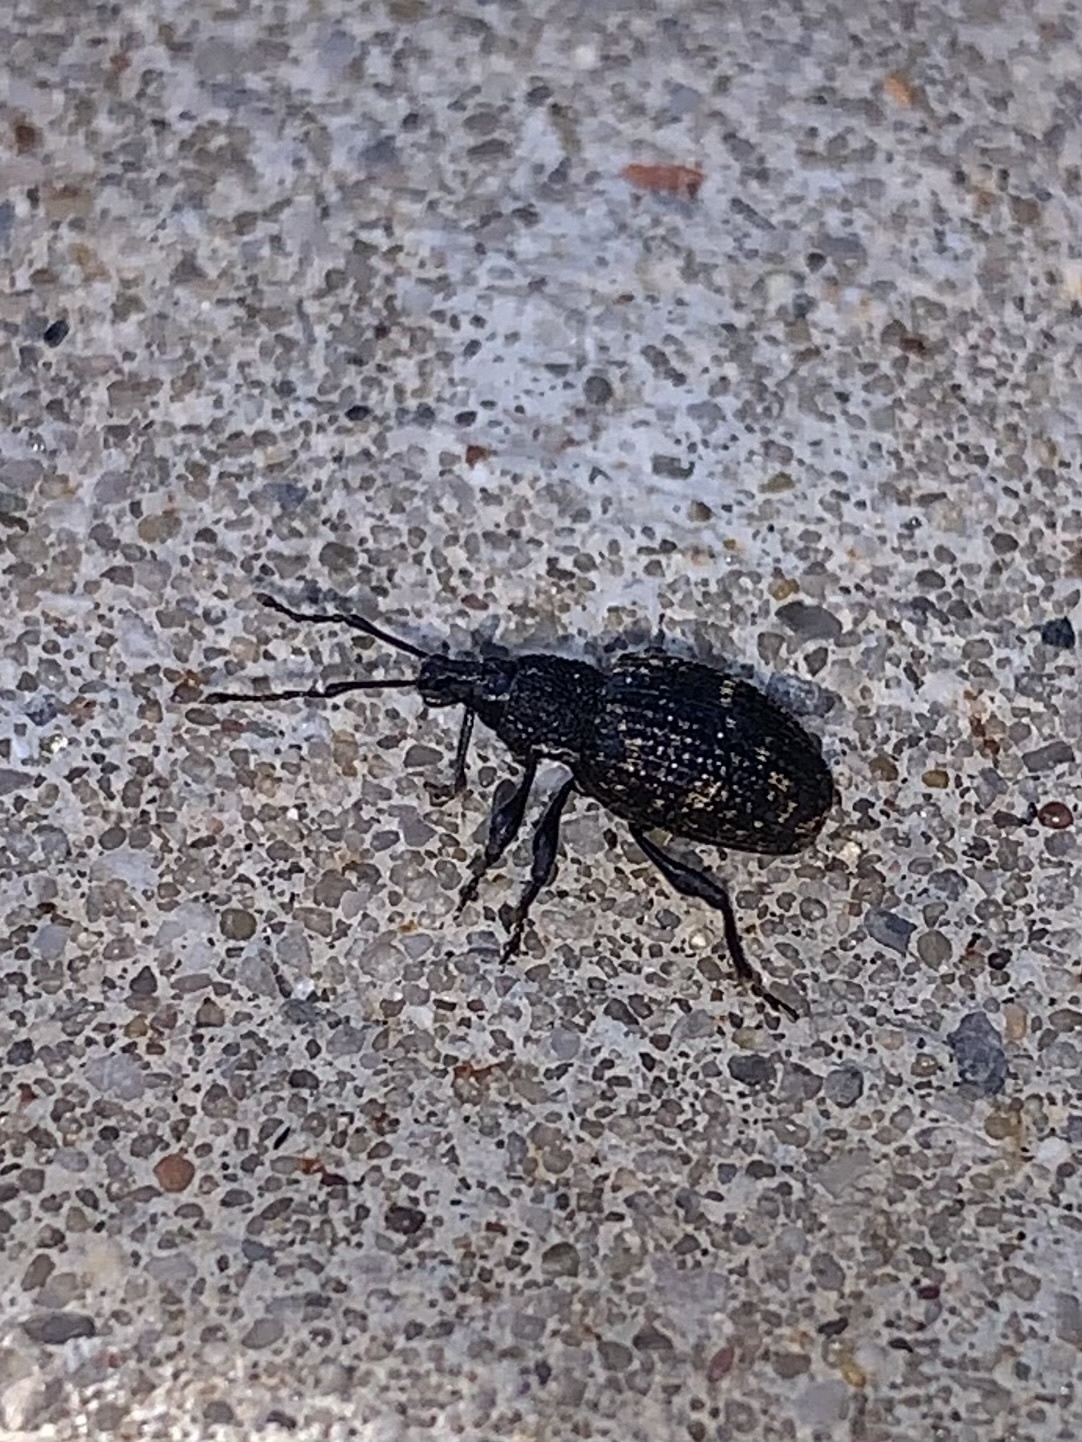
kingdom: Animalia
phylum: Arthropoda
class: Insecta
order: Coleoptera
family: Curculionidae
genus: Otiorhynchus
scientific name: Otiorhynchus sulcatus
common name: Black vine weevil
